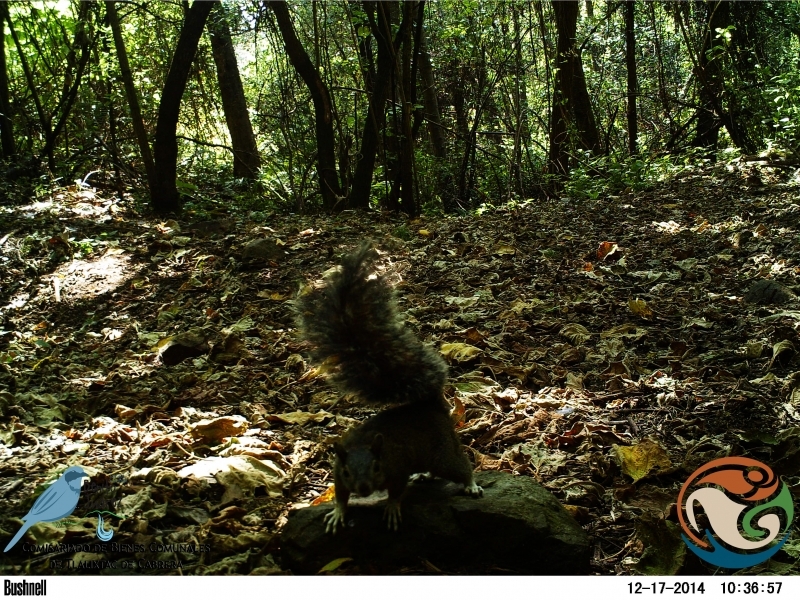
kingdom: Animalia
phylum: Chordata
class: Mammalia
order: Rodentia
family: Sciuridae
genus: Sciurus
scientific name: Sciurus aureogaster
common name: Red-bellied squirrel
